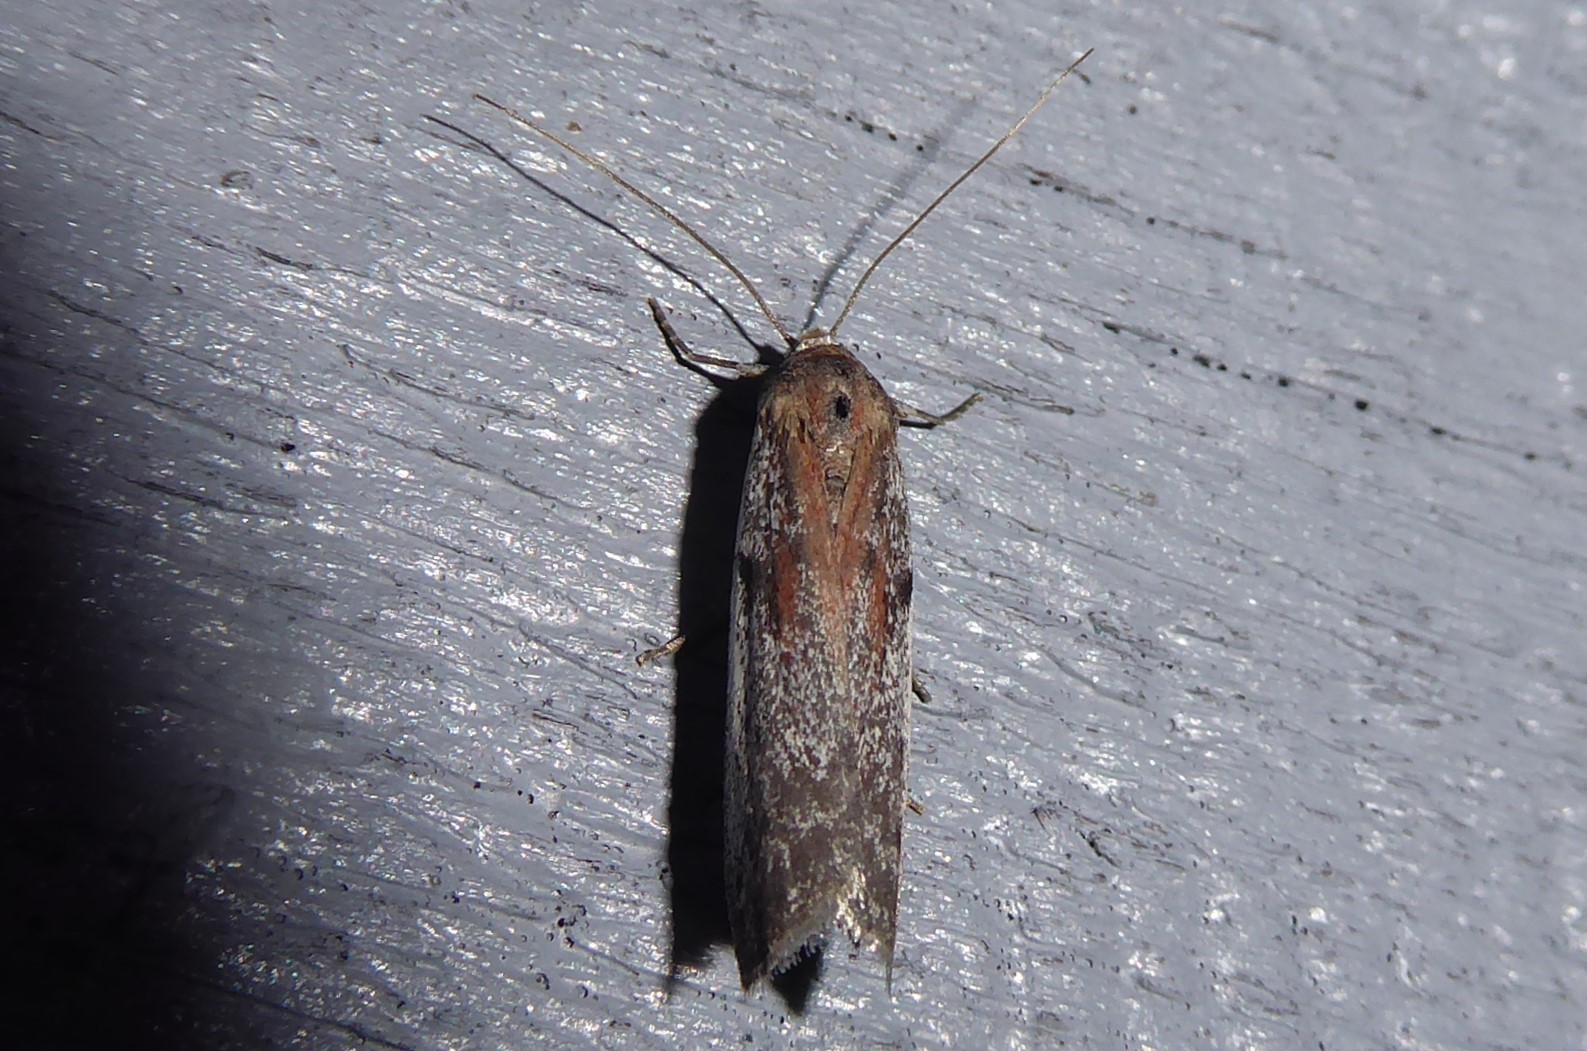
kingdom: Animalia
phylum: Arthropoda
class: Insecta
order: Lepidoptera
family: Pyralidae
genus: Patagoniodes
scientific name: Patagoniodes farinaria
